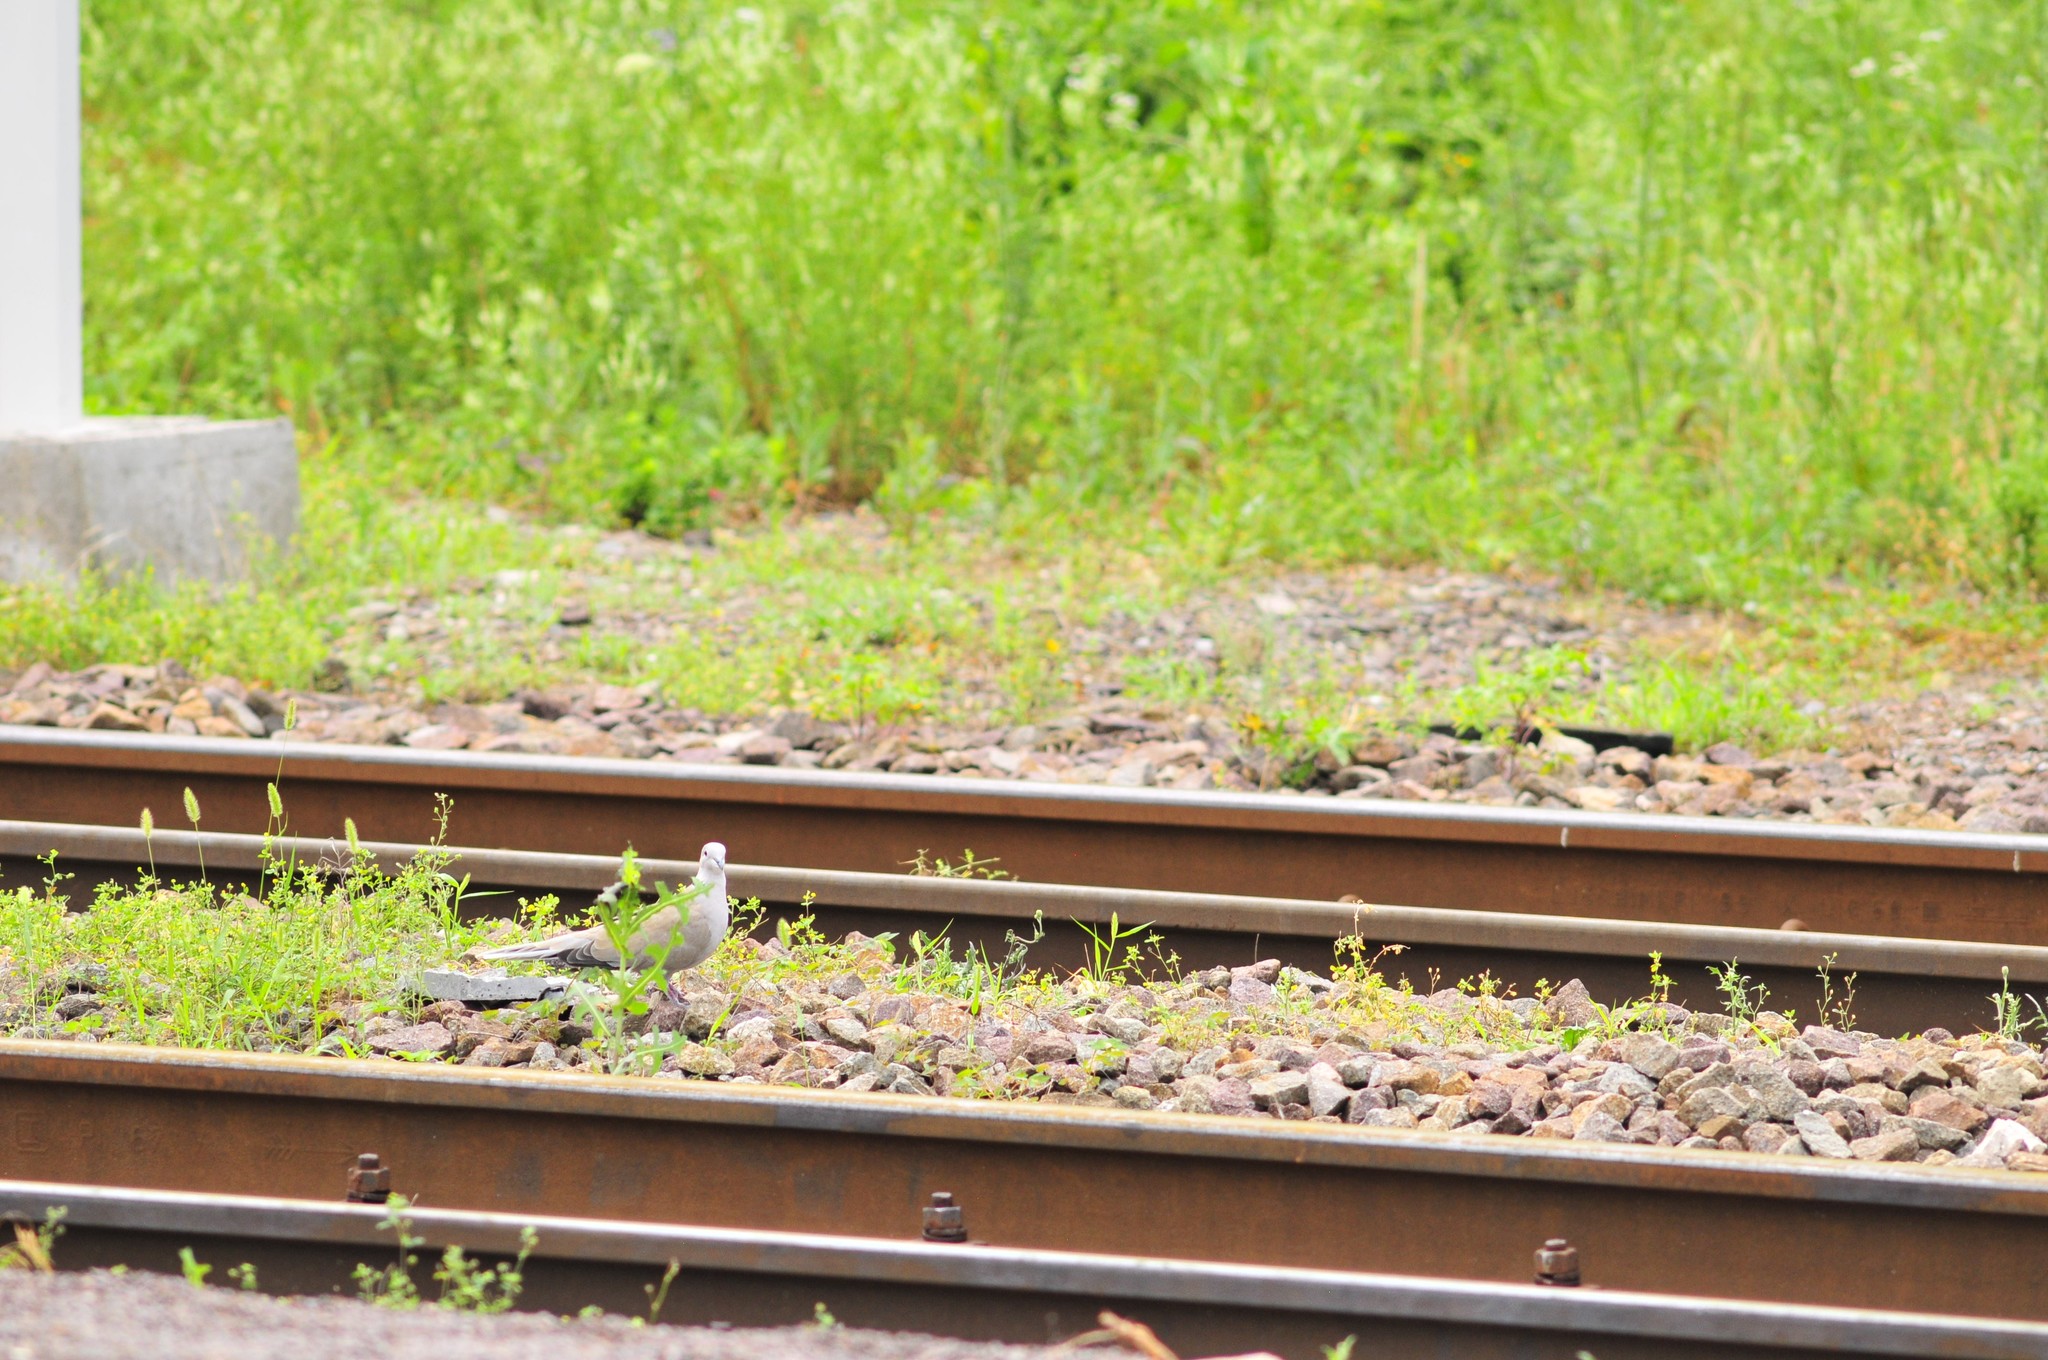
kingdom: Animalia
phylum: Chordata
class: Aves
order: Columbiformes
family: Columbidae
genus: Streptopelia
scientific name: Streptopelia decaocto
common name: Eurasian collared dove
